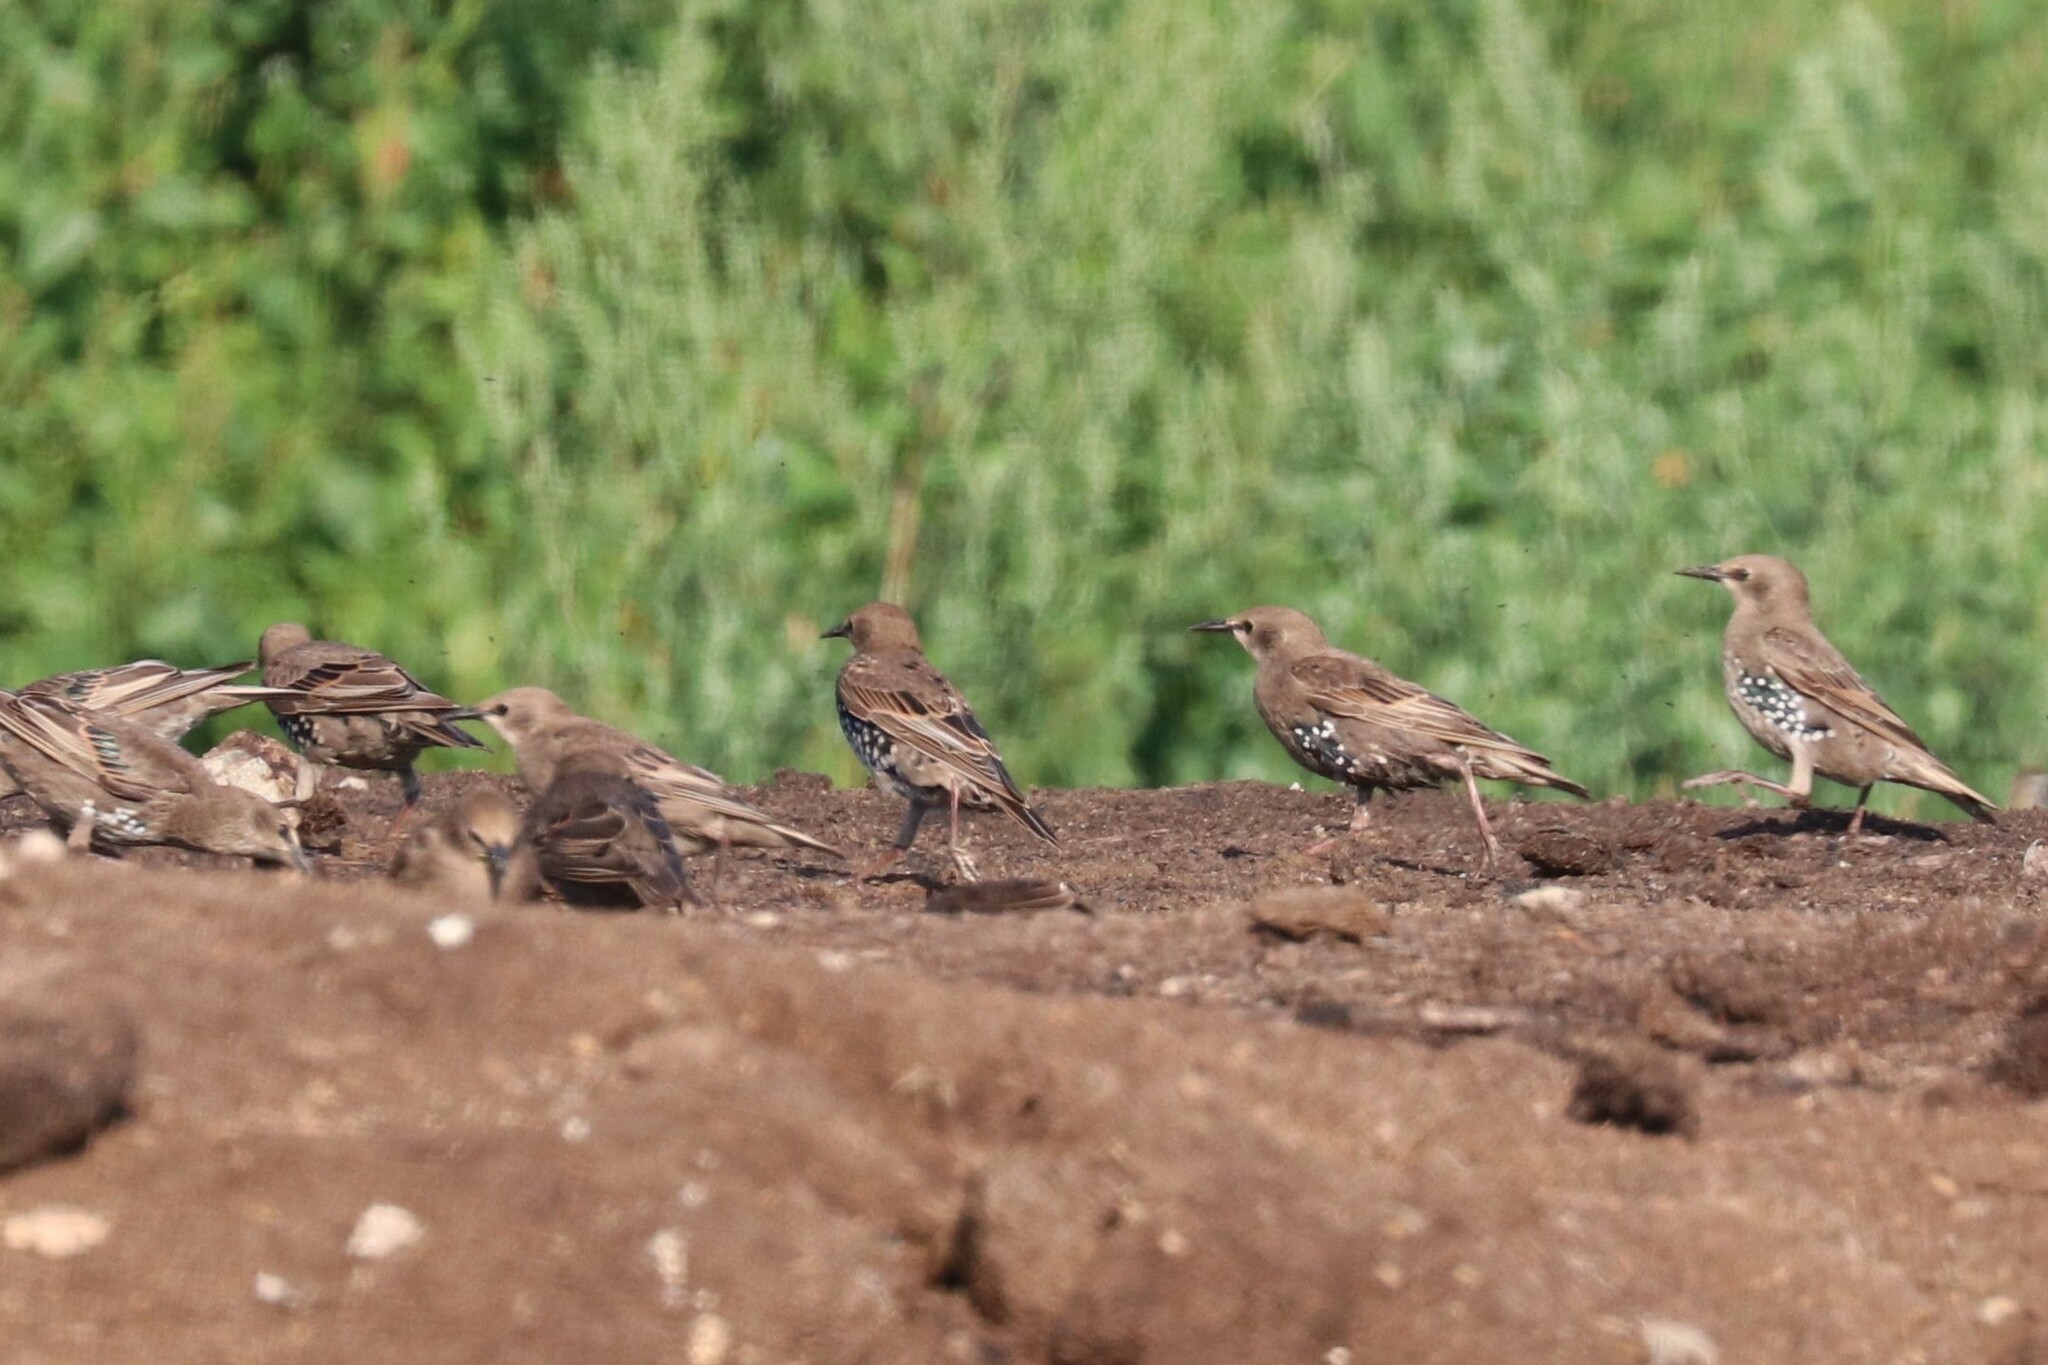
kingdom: Animalia
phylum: Chordata
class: Aves
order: Passeriformes
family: Sturnidae
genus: Sturnus
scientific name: Sturnus vulgaris
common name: Common starling
